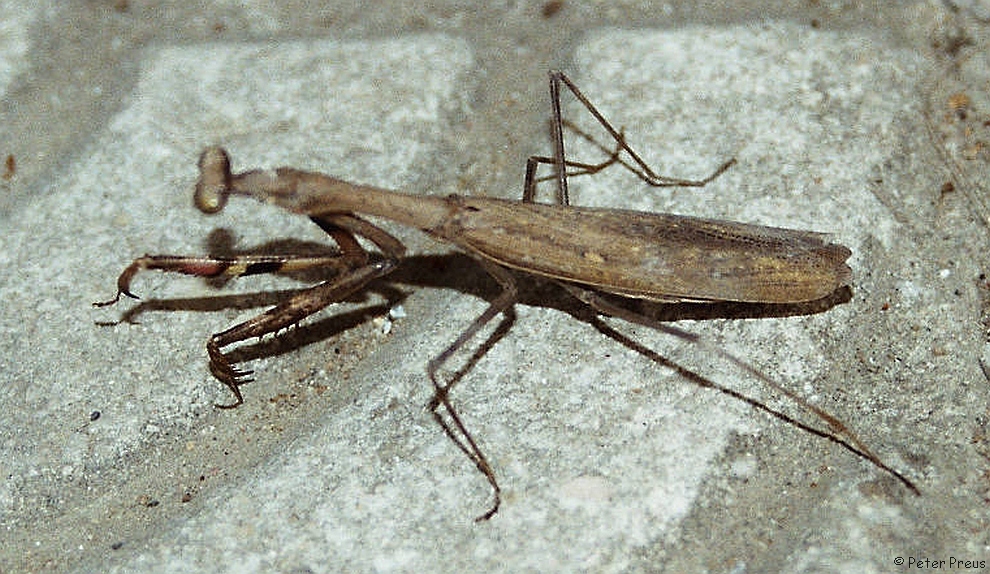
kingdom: Animalia
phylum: Arthropoda
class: Insecta
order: Mantodea
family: Mantidae
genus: Statilia
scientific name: Statilia maculata
